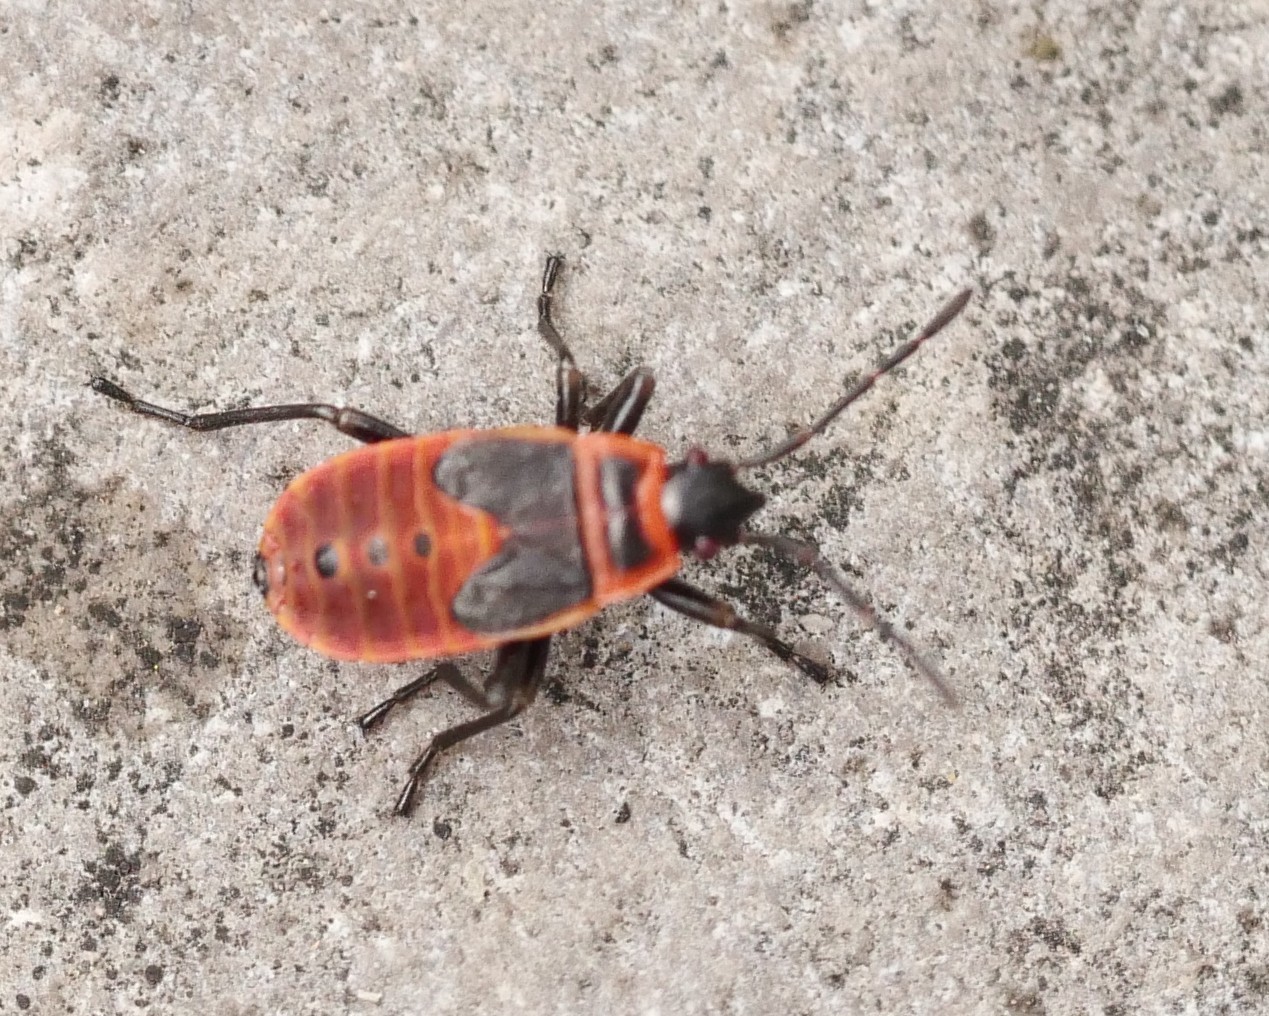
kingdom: Animalia
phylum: Arthropoda
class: Insecta
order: Hemiptera
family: Pyrrhocoridae
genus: Pyrrhocoris
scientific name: Pyrrhocoris apterus
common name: Firebug
